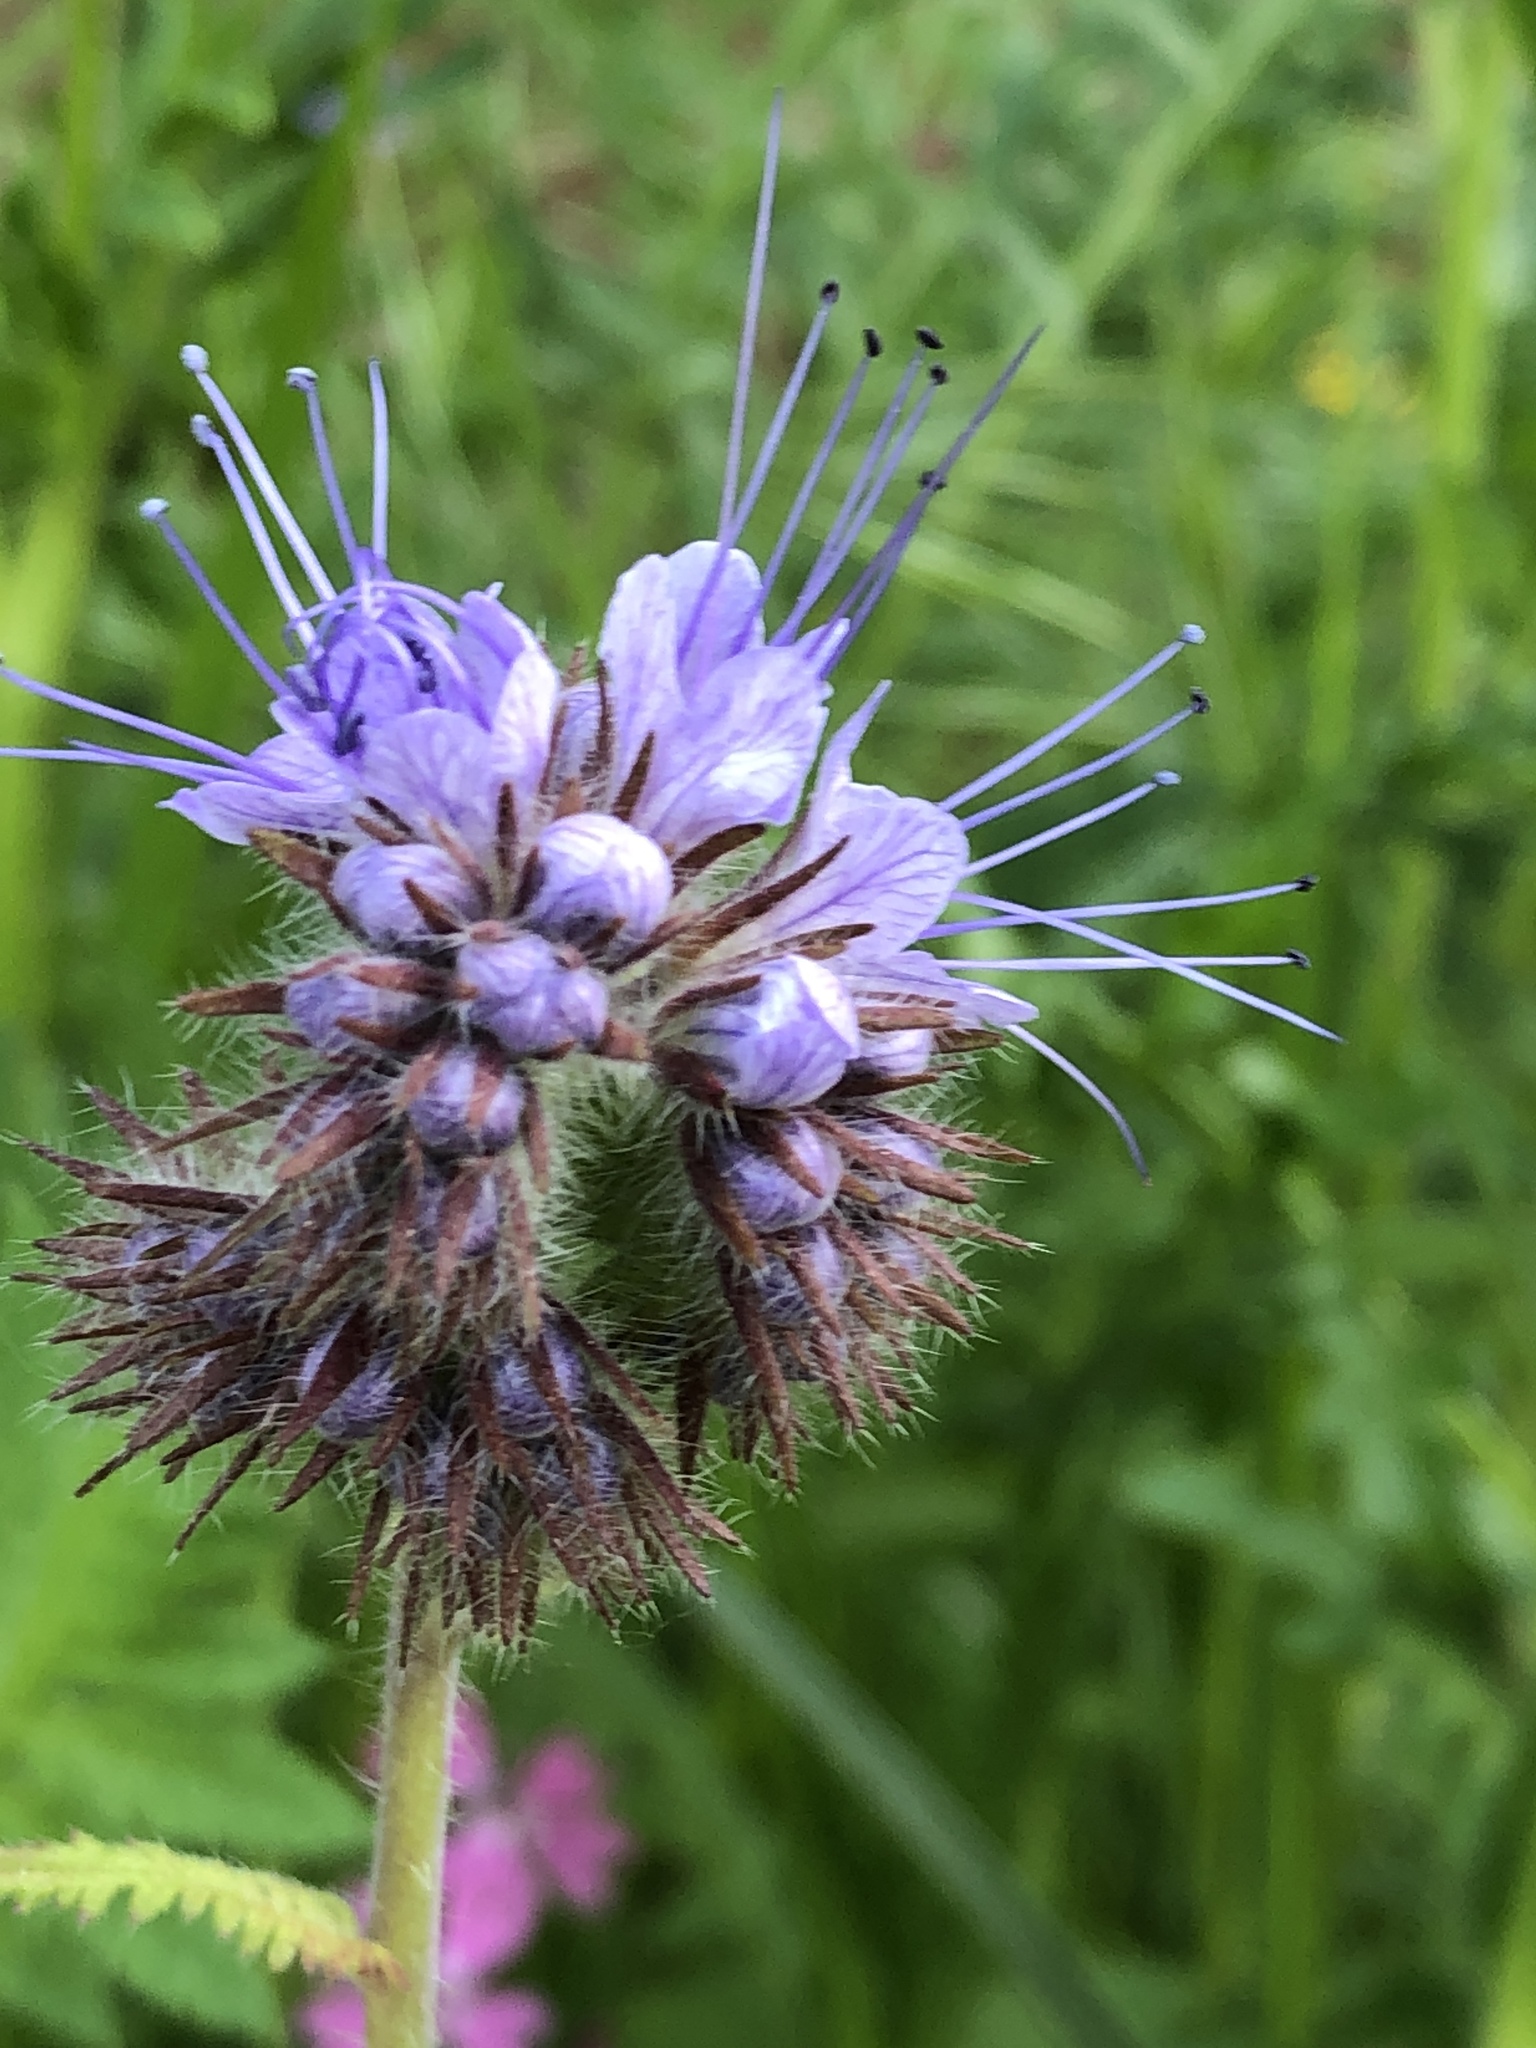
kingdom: Plantae
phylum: Tracheophyta
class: Magnoliopsida
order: Boraginales
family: Hydrophyllaceae
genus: Phacelia
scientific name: Phacelia tanacetifolia
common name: Phacelia
